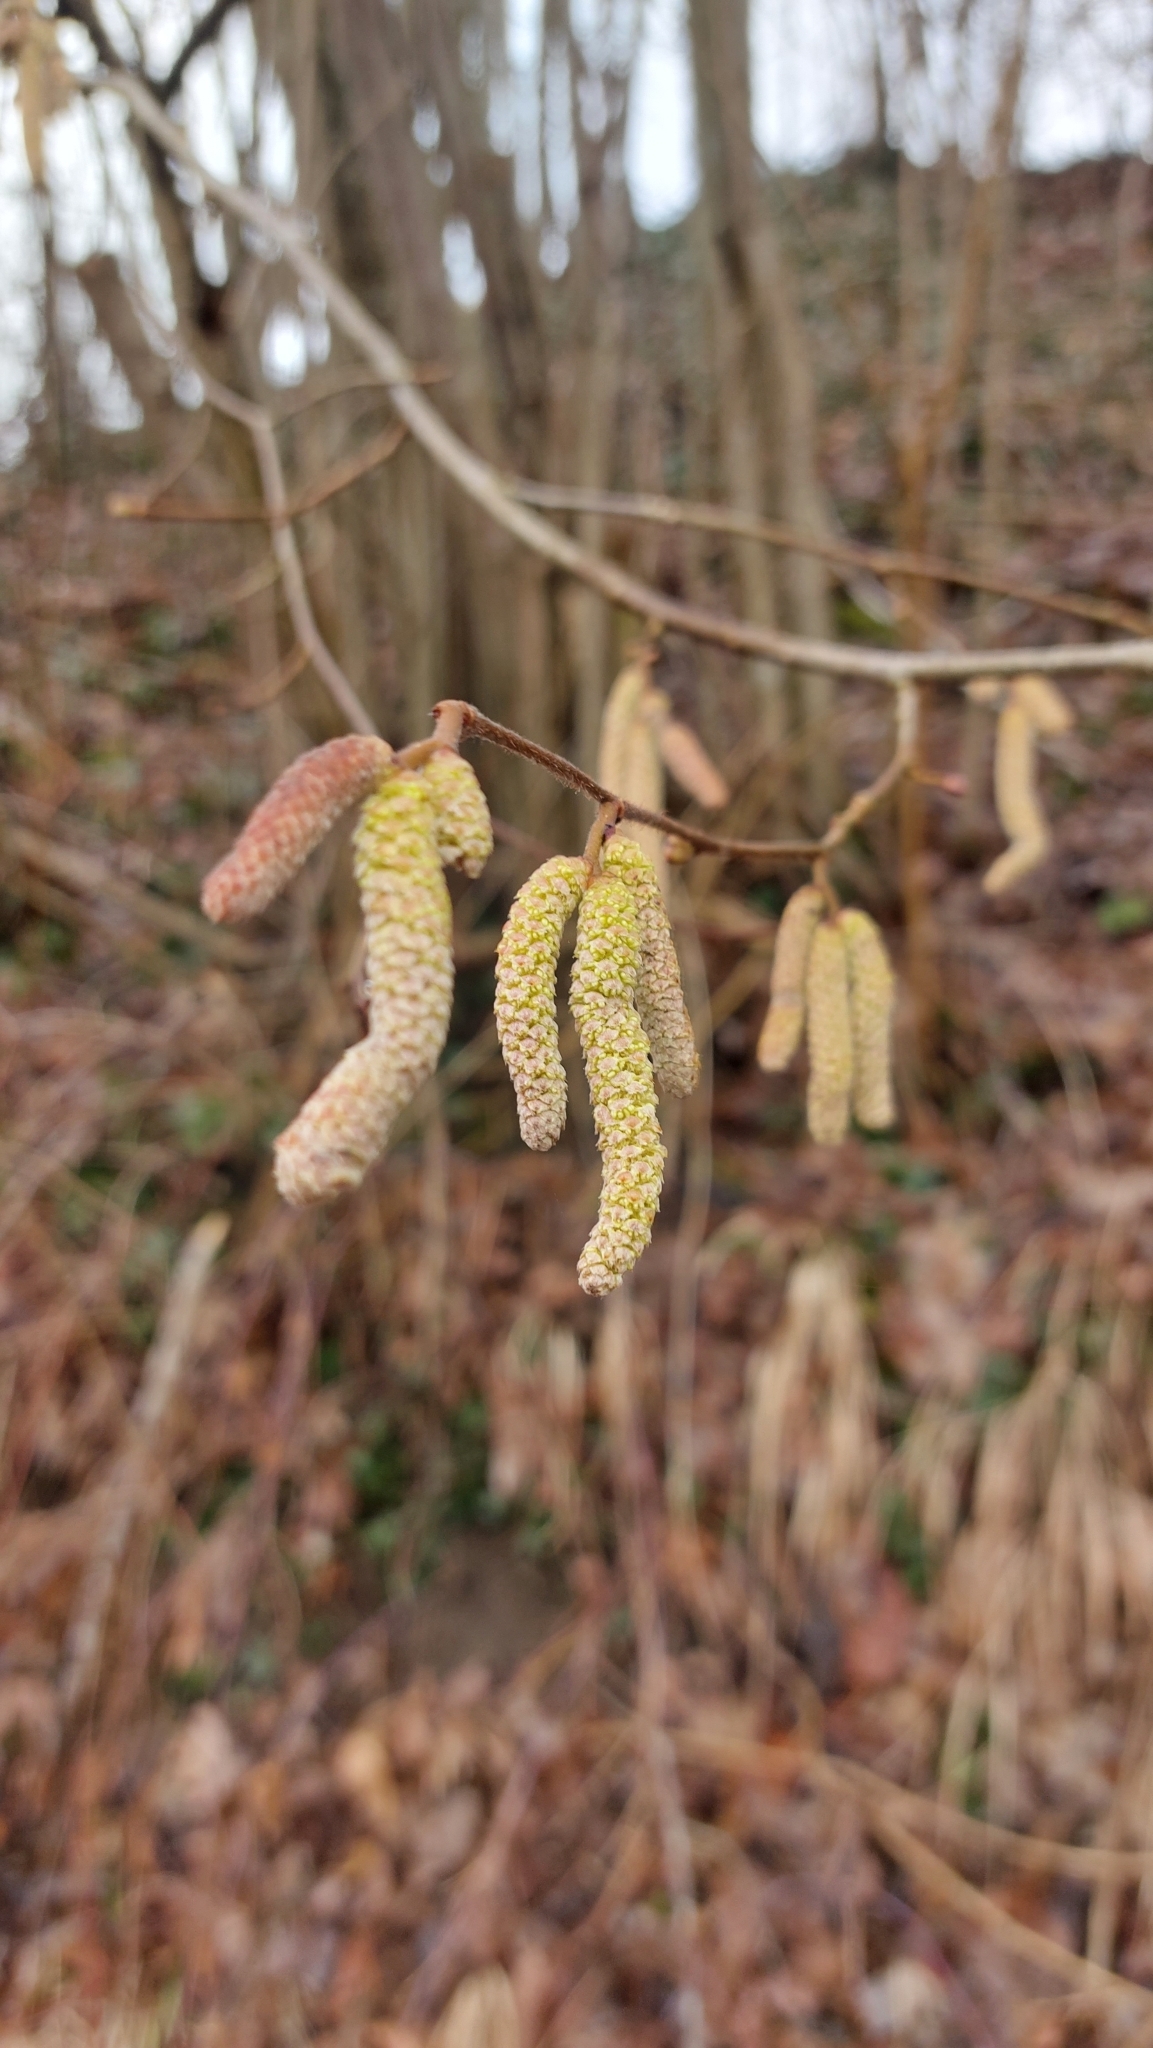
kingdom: Plantae
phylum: Tracheophyta
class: Magnoliopsida
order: Fagales
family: Betulaceae
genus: Corylus
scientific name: Corylus avellana
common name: European hazel
